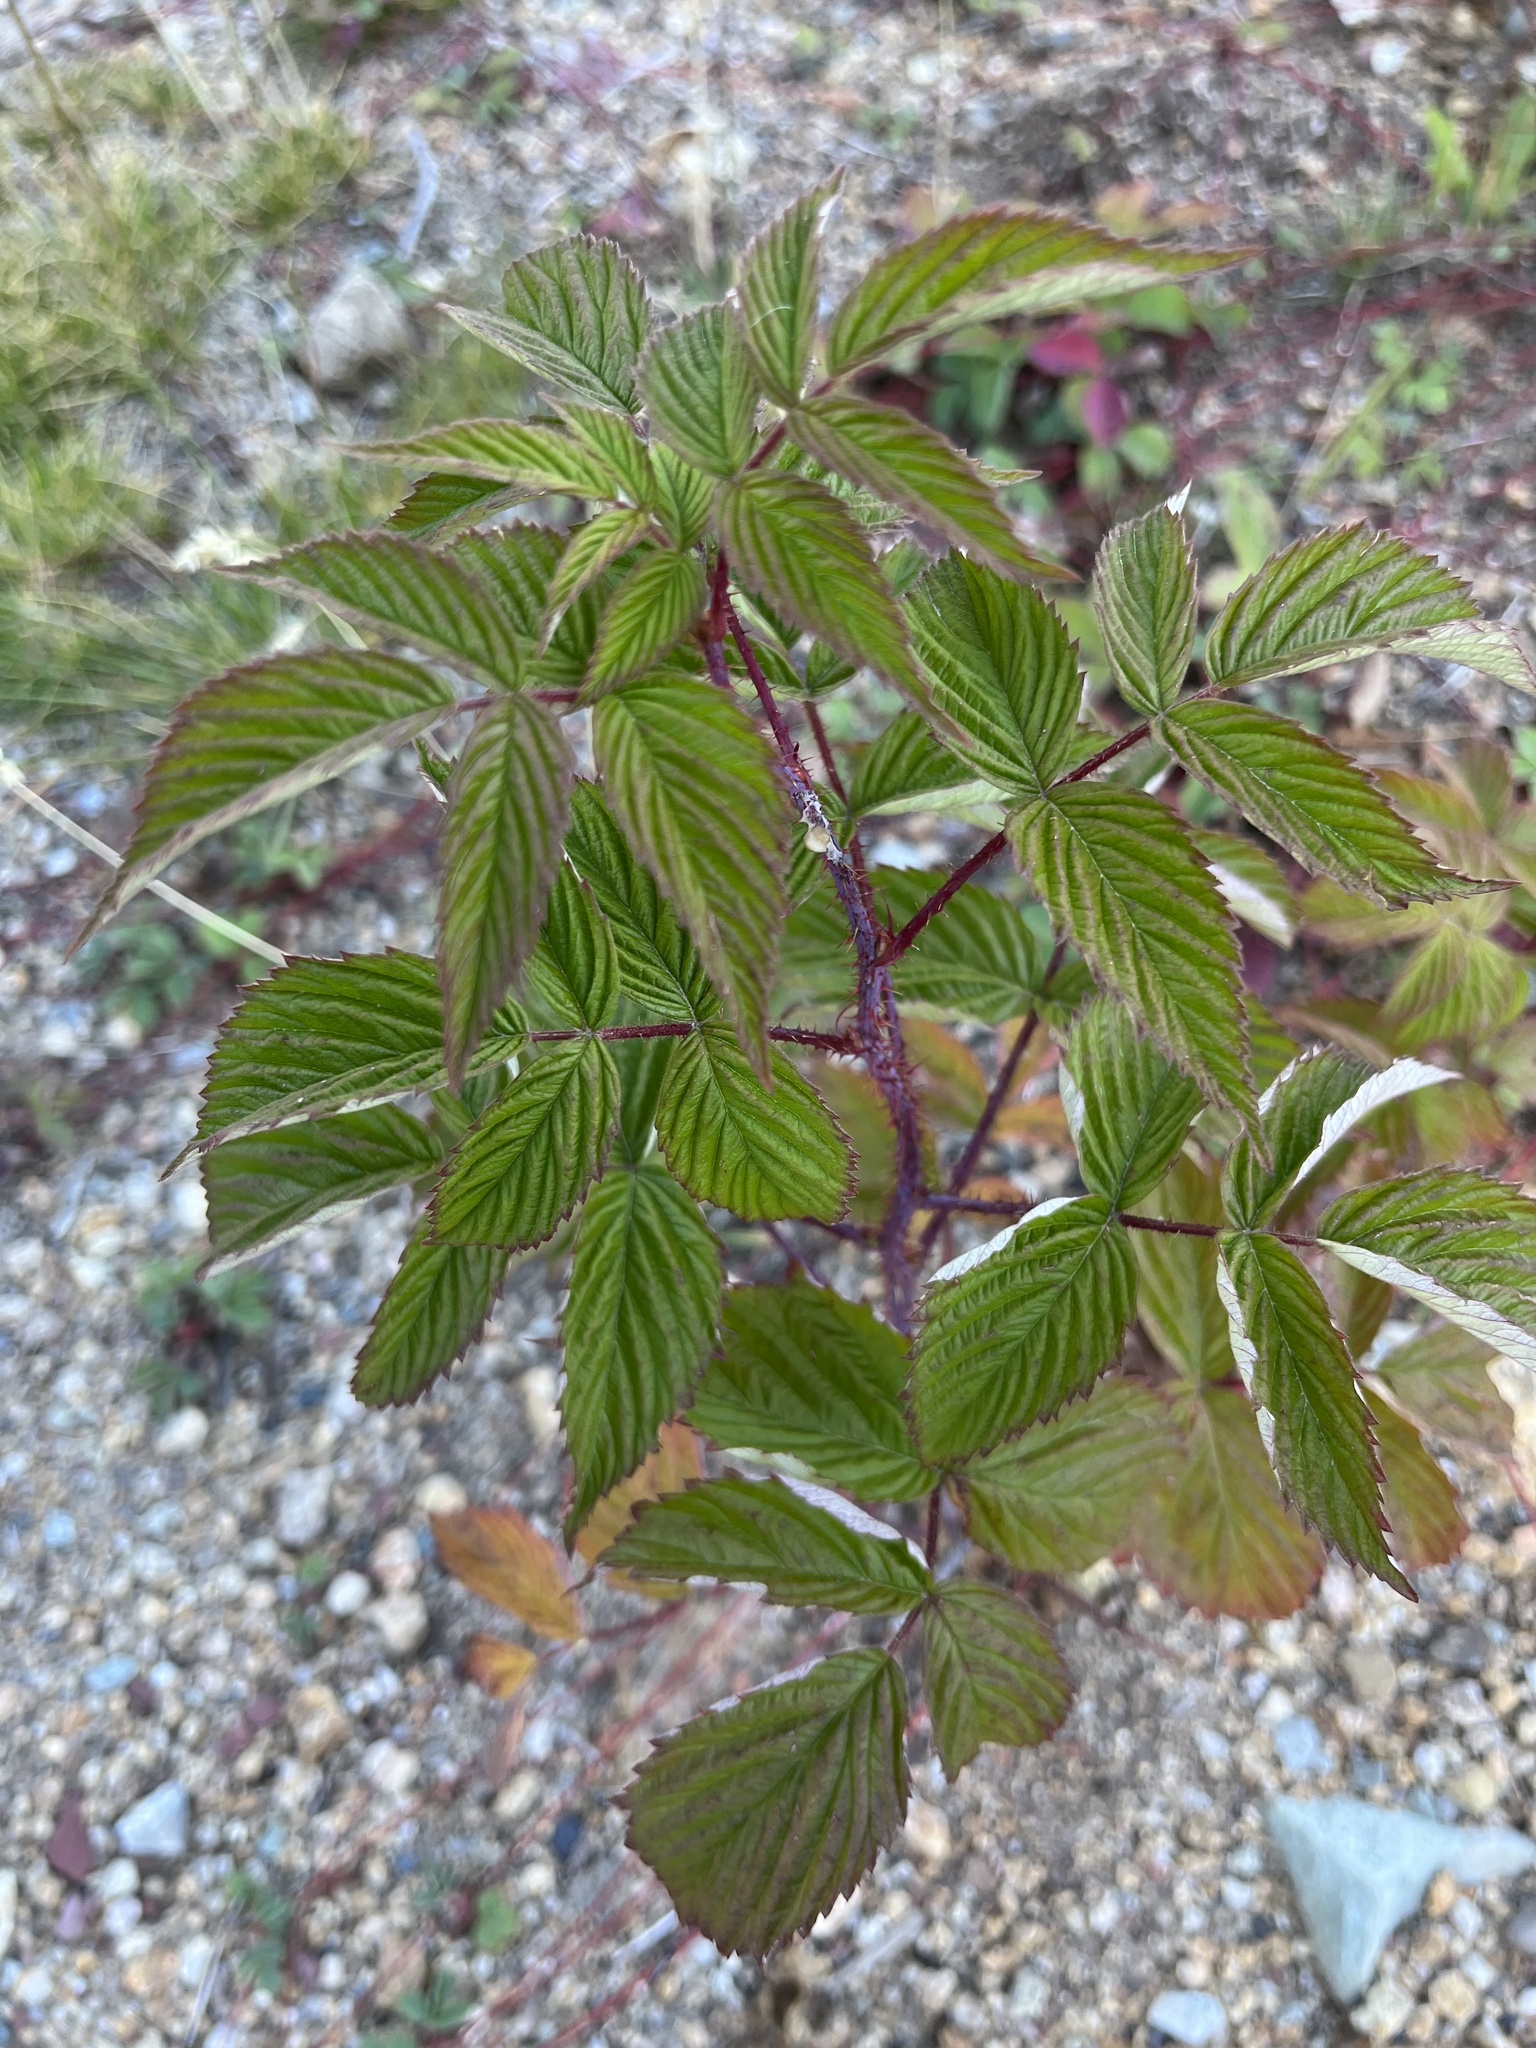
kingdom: Plantae
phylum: Tracheophyta
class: Magnoliopsida
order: Rosales
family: Rosaceae
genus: Rubus
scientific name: Rubus idaeus
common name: Raspberry
